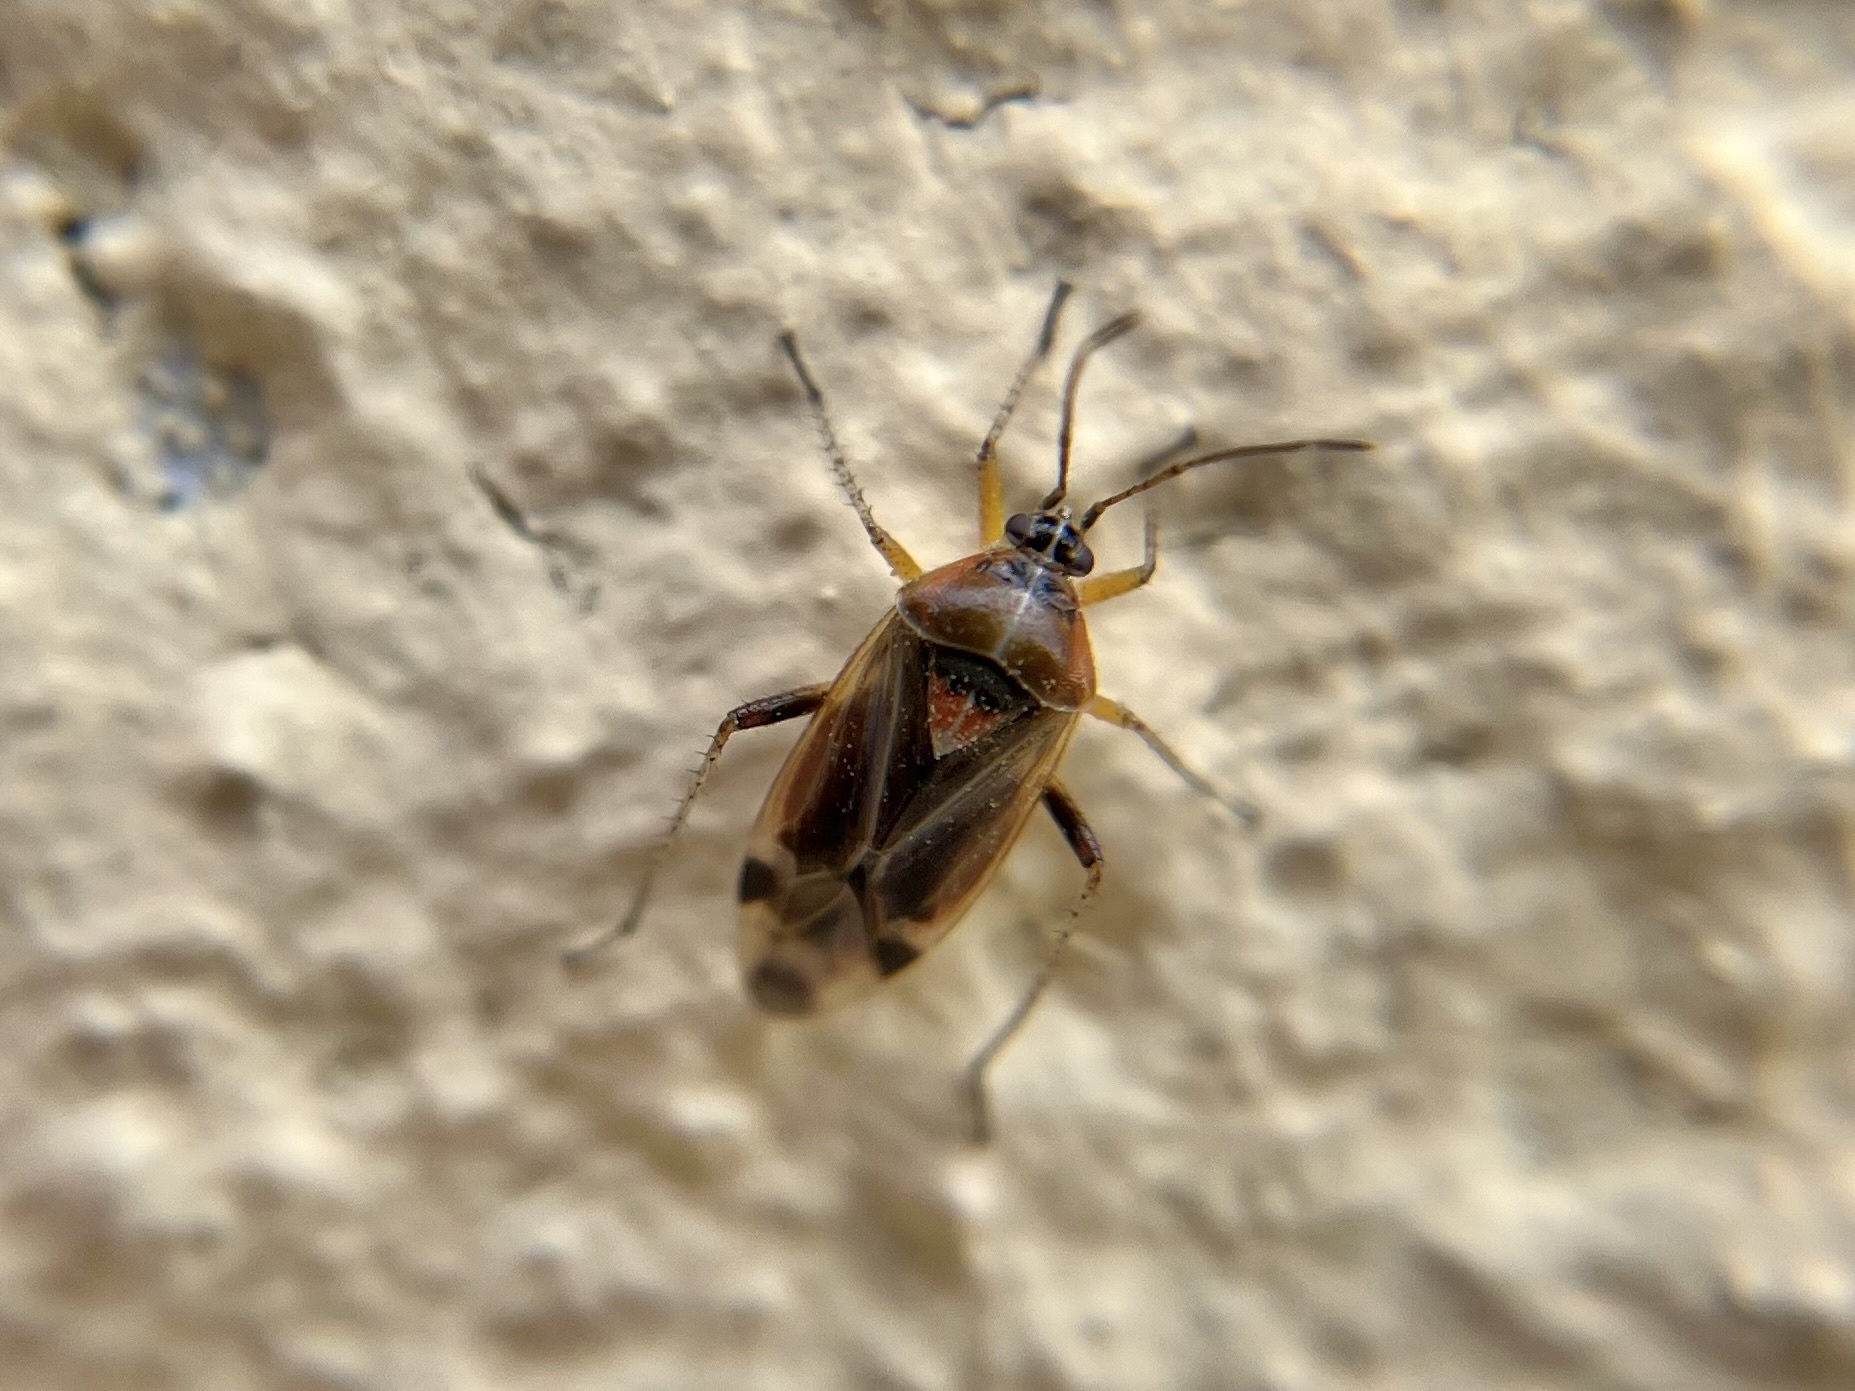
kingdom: Animalia
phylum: Arthropoda
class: Insecta
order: Hemiptera
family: Miridae
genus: Harpocera
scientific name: Harpocera thoracica
